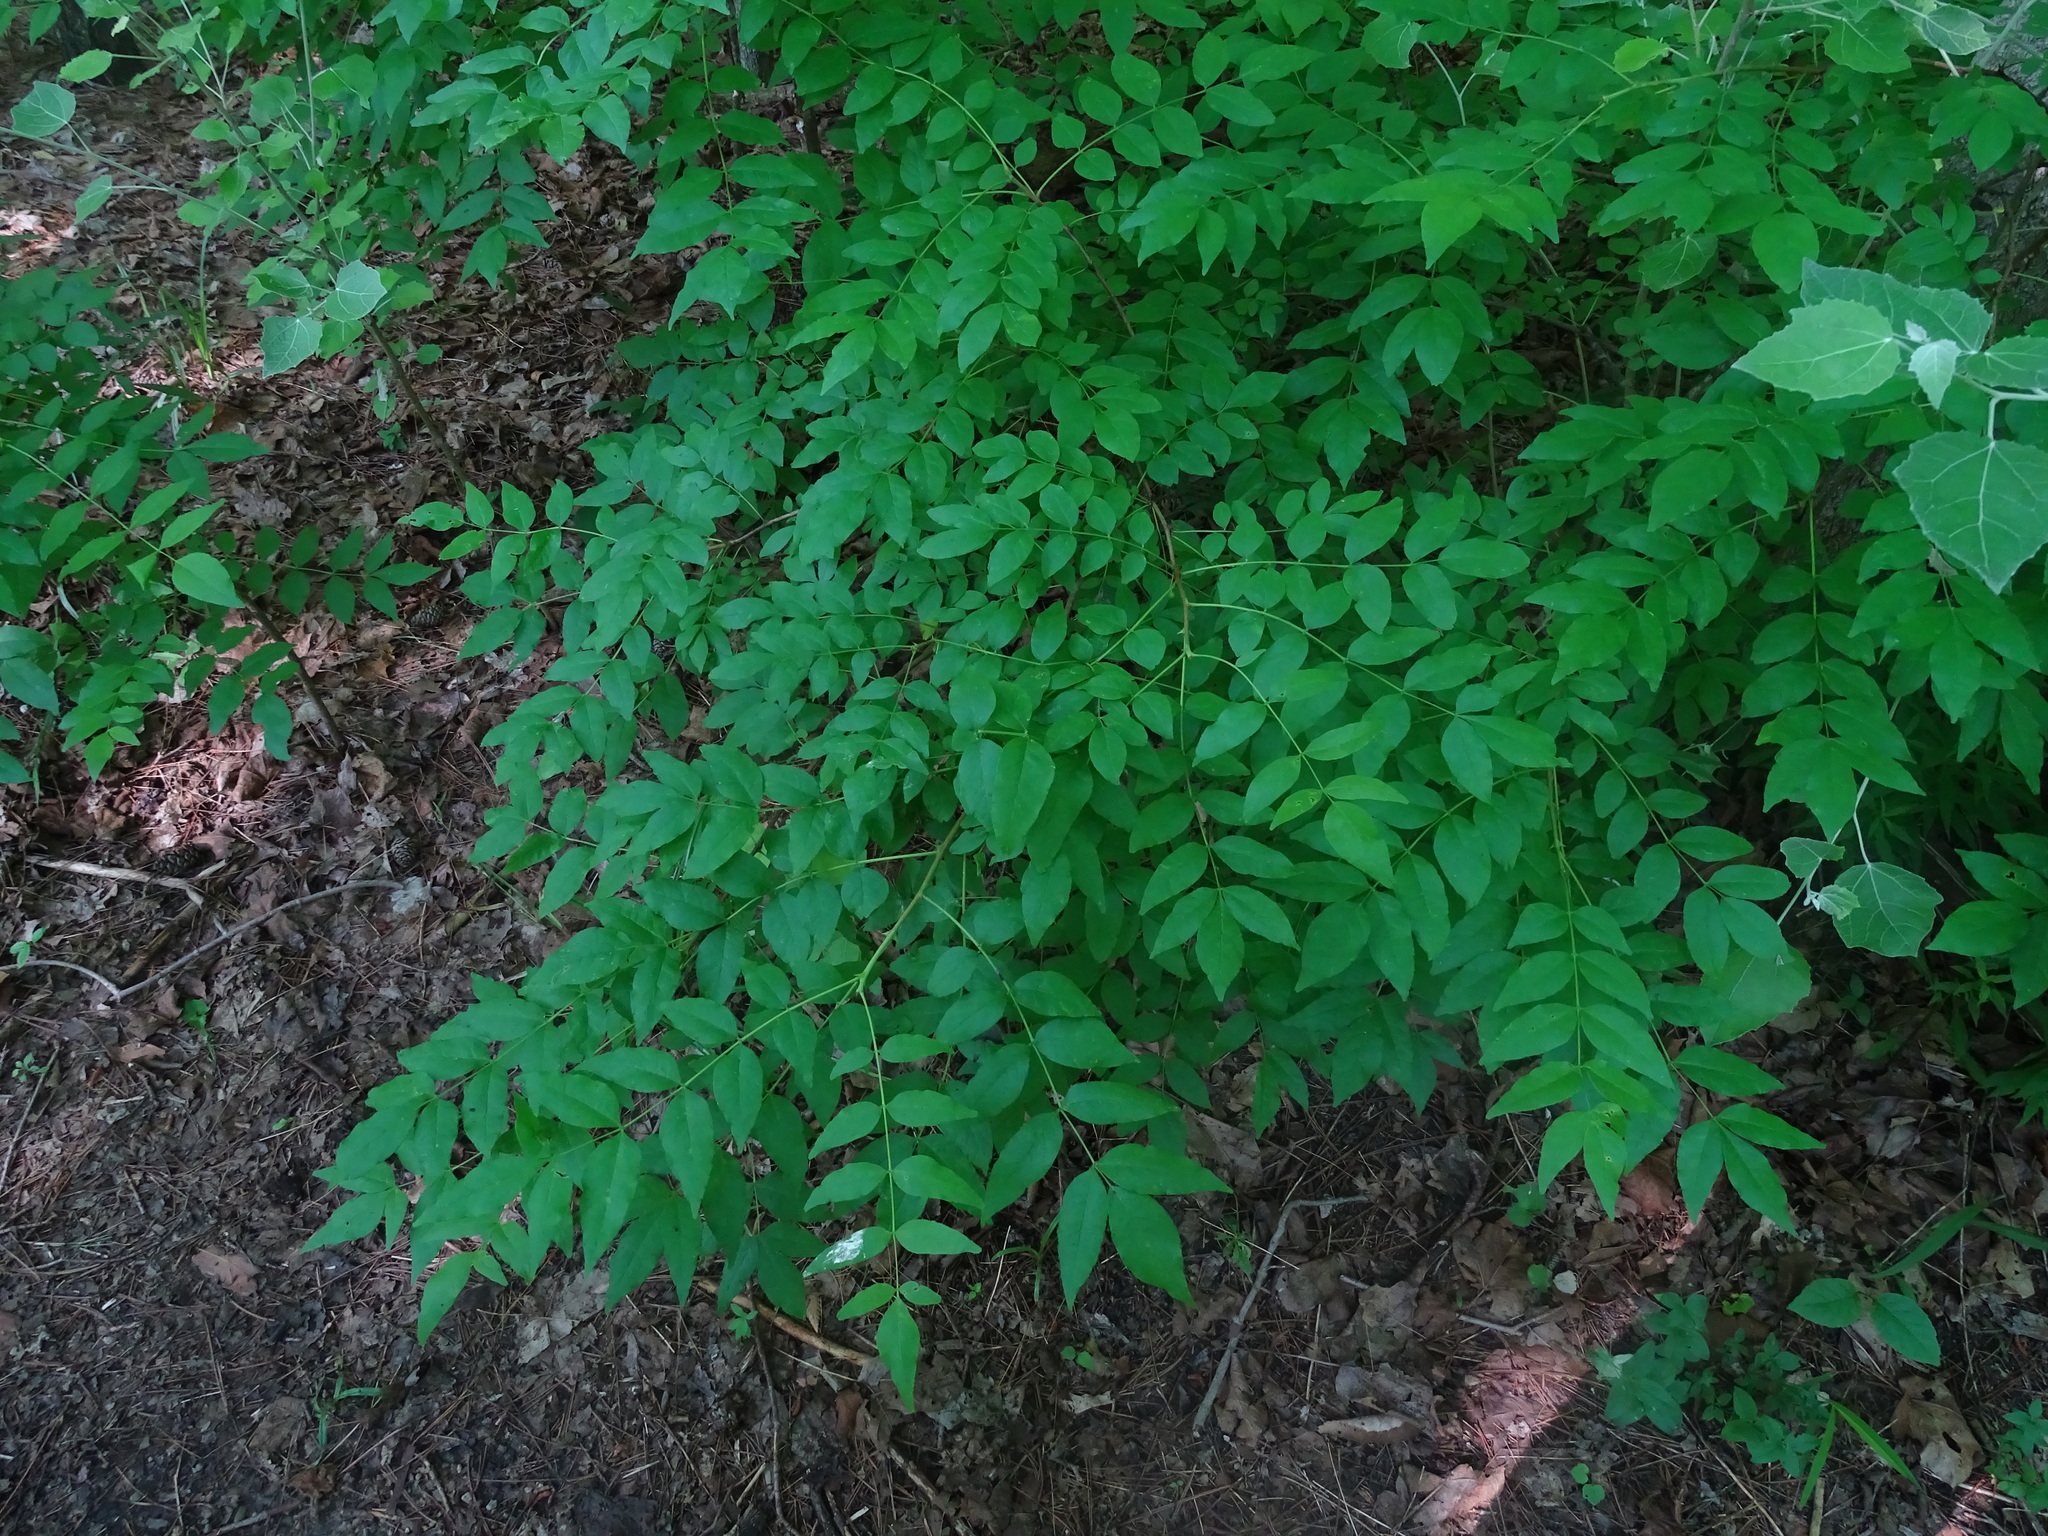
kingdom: Plantae
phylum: Tracheophyta
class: Magnoliopsida
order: Sapindales
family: Rutaceae
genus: Zanthoxylum
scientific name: Zanthoxylum americanum
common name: Northern prickly-ash
